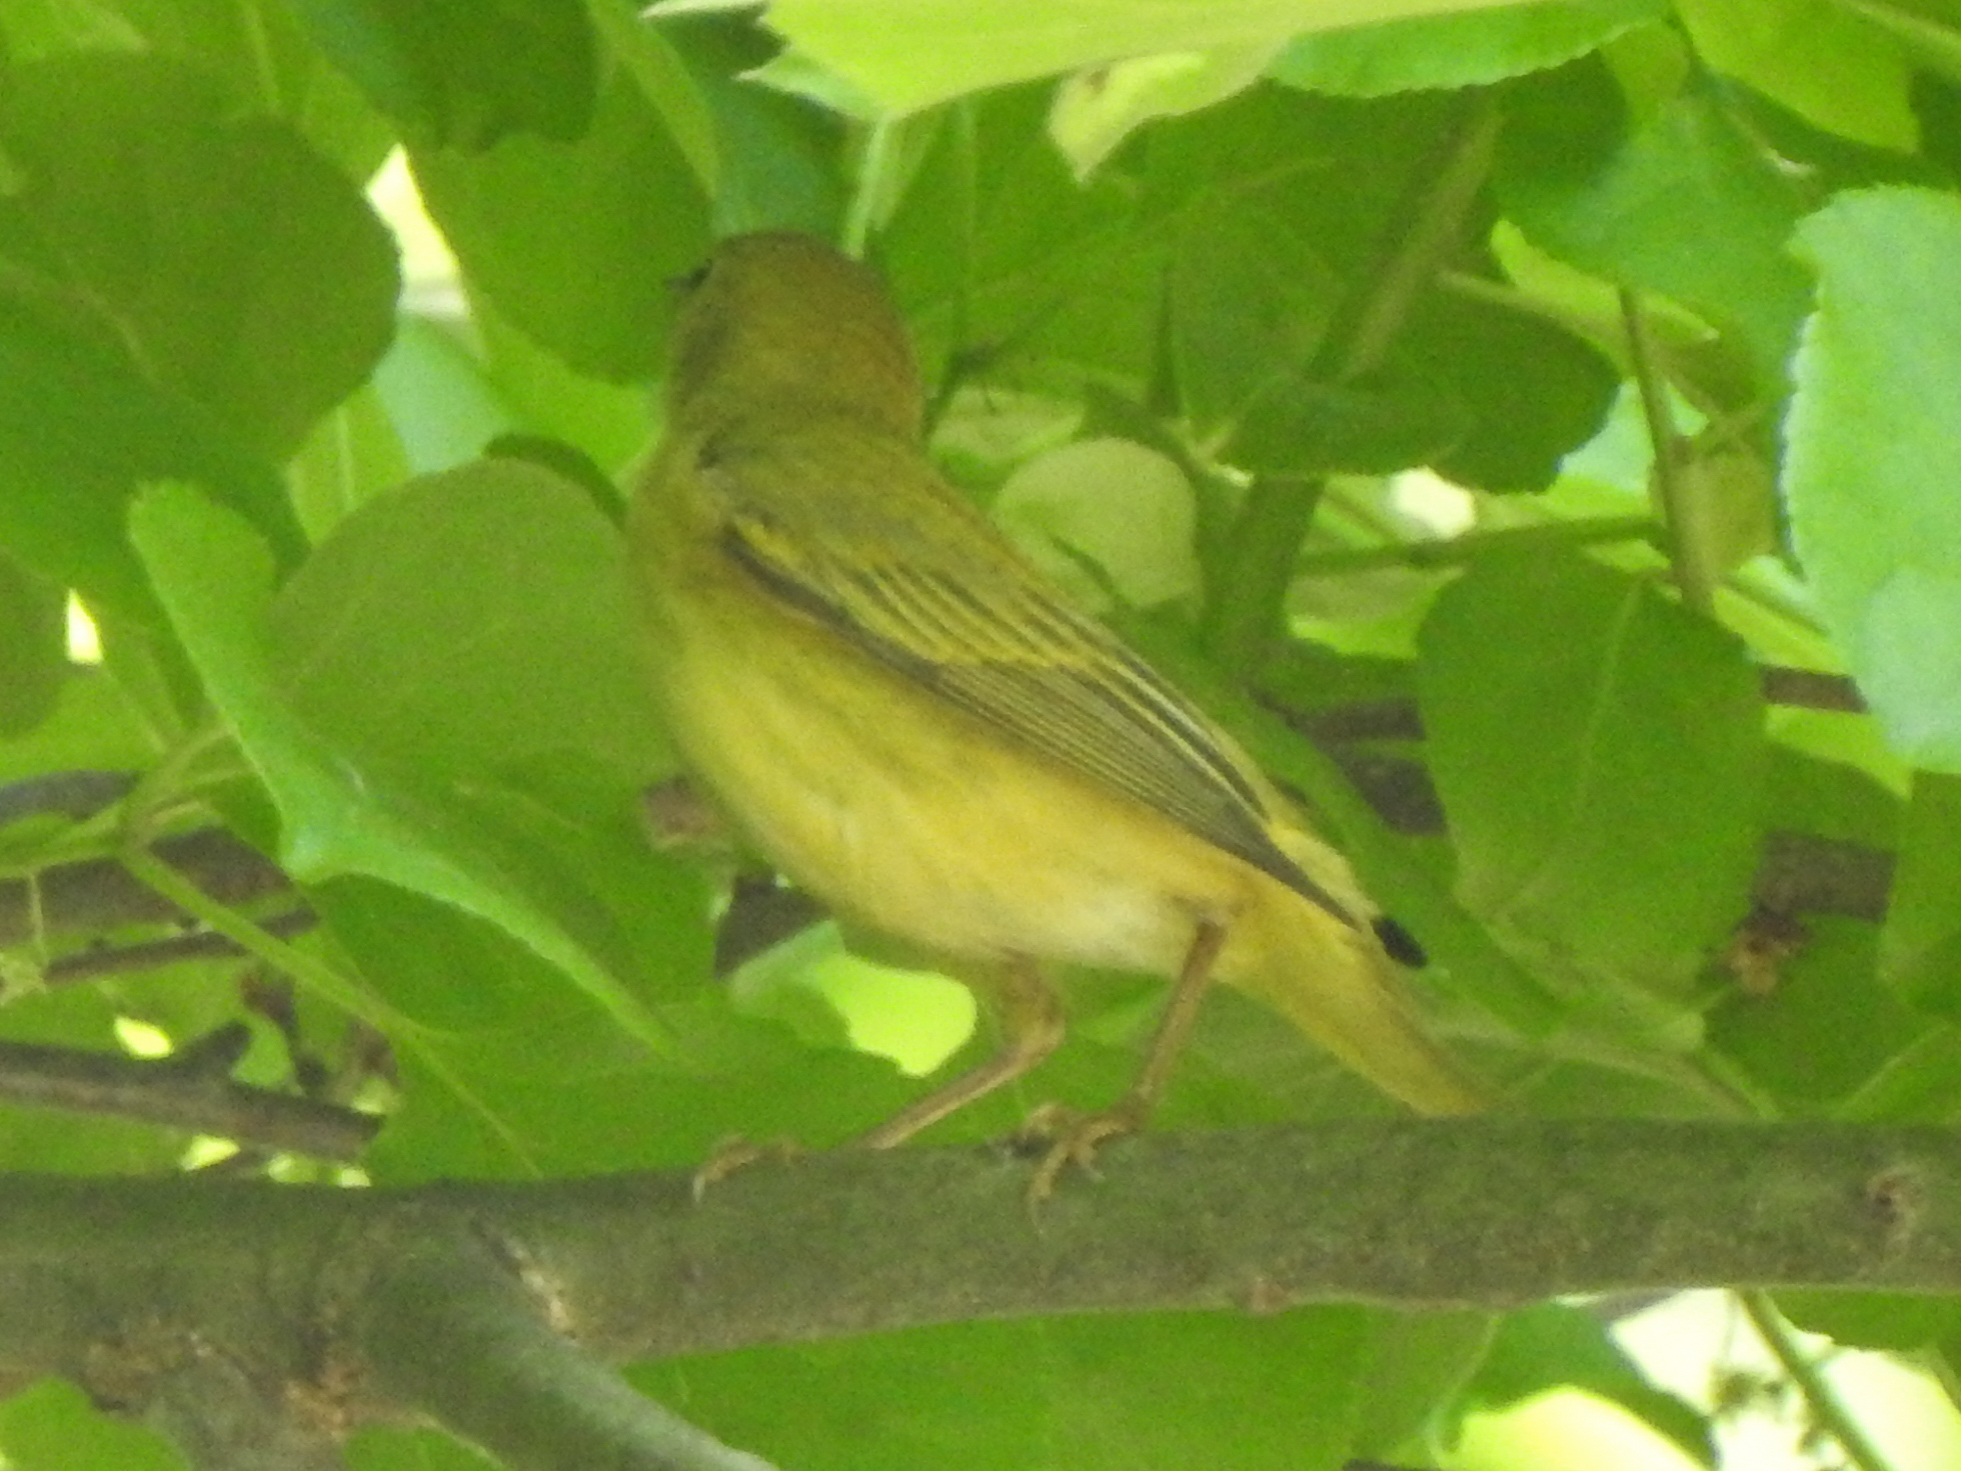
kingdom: Animalia
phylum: Chordata
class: Aves
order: Passeriformes
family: Parulidae
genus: Setophaga
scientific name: Setophaga petechia
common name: Yellow warbler
